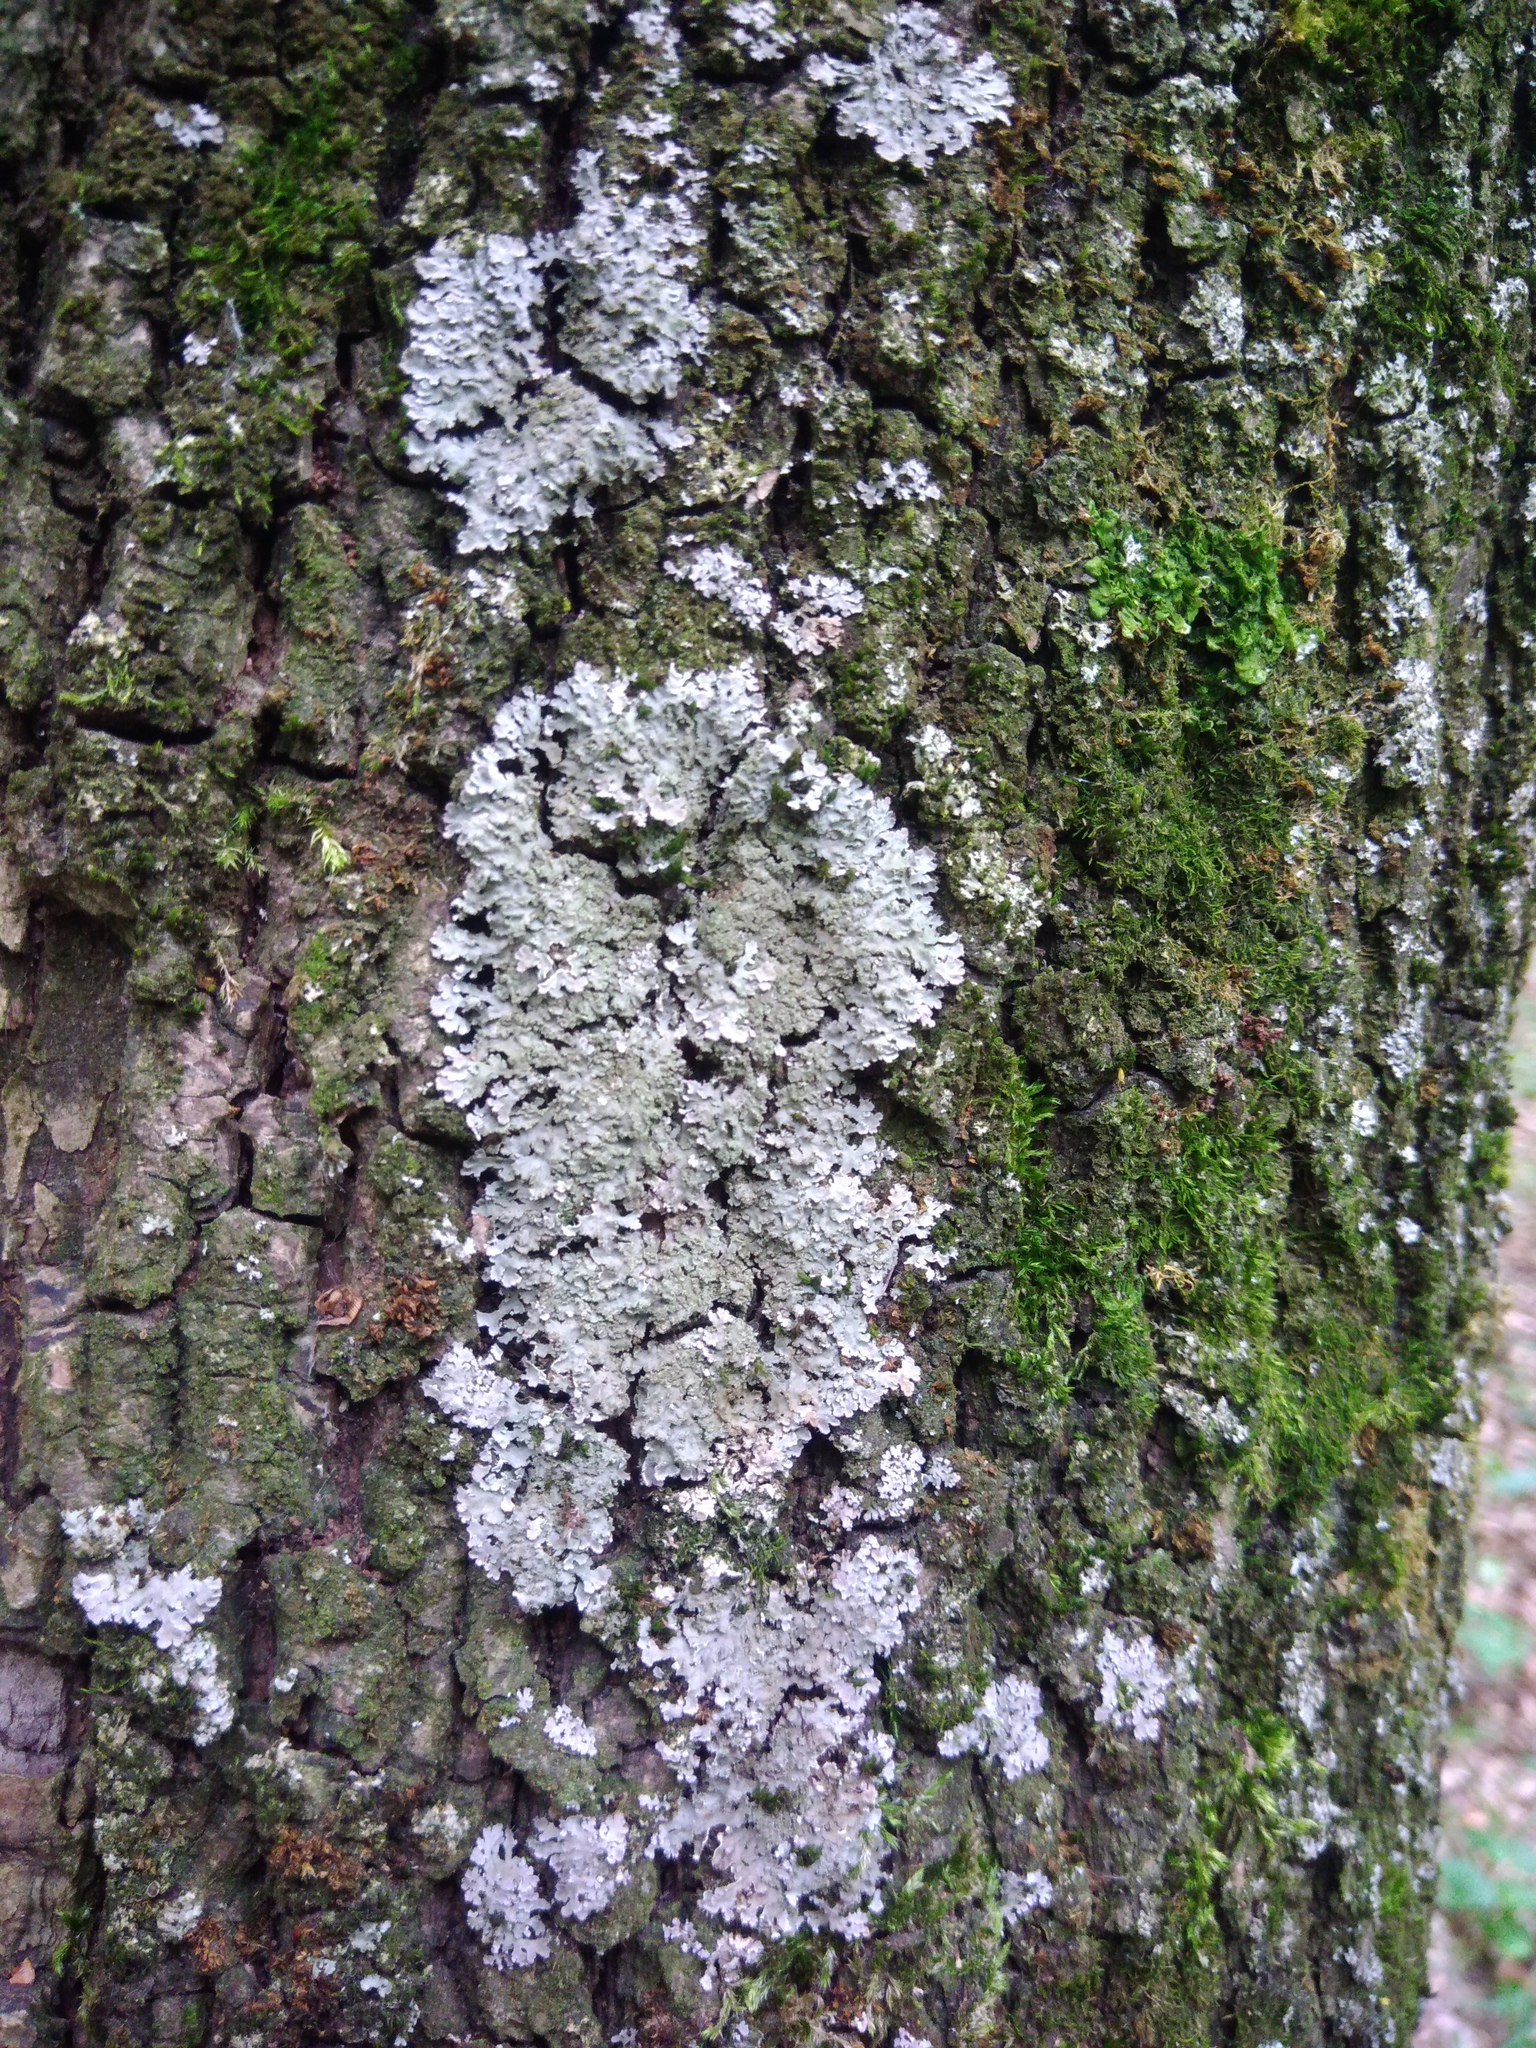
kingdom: Fungi
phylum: Ascomycota
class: Lecanoromycetes
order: Caliciales
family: Physciaceae
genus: Poeltonia
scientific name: Poeltonia grisea
